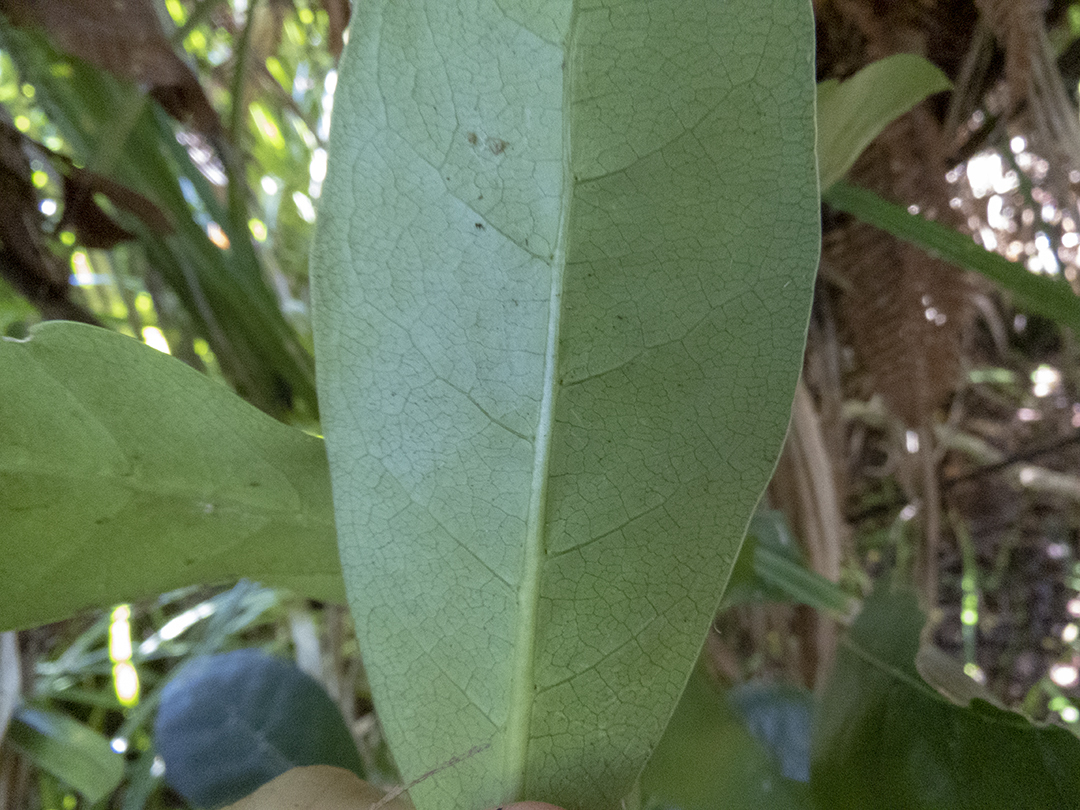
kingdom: Plantae
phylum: Tracheophyta
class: Magnoliopsida
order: Gentianales
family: Rubiaceae
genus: Coprosma
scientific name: Coprosma lucida
